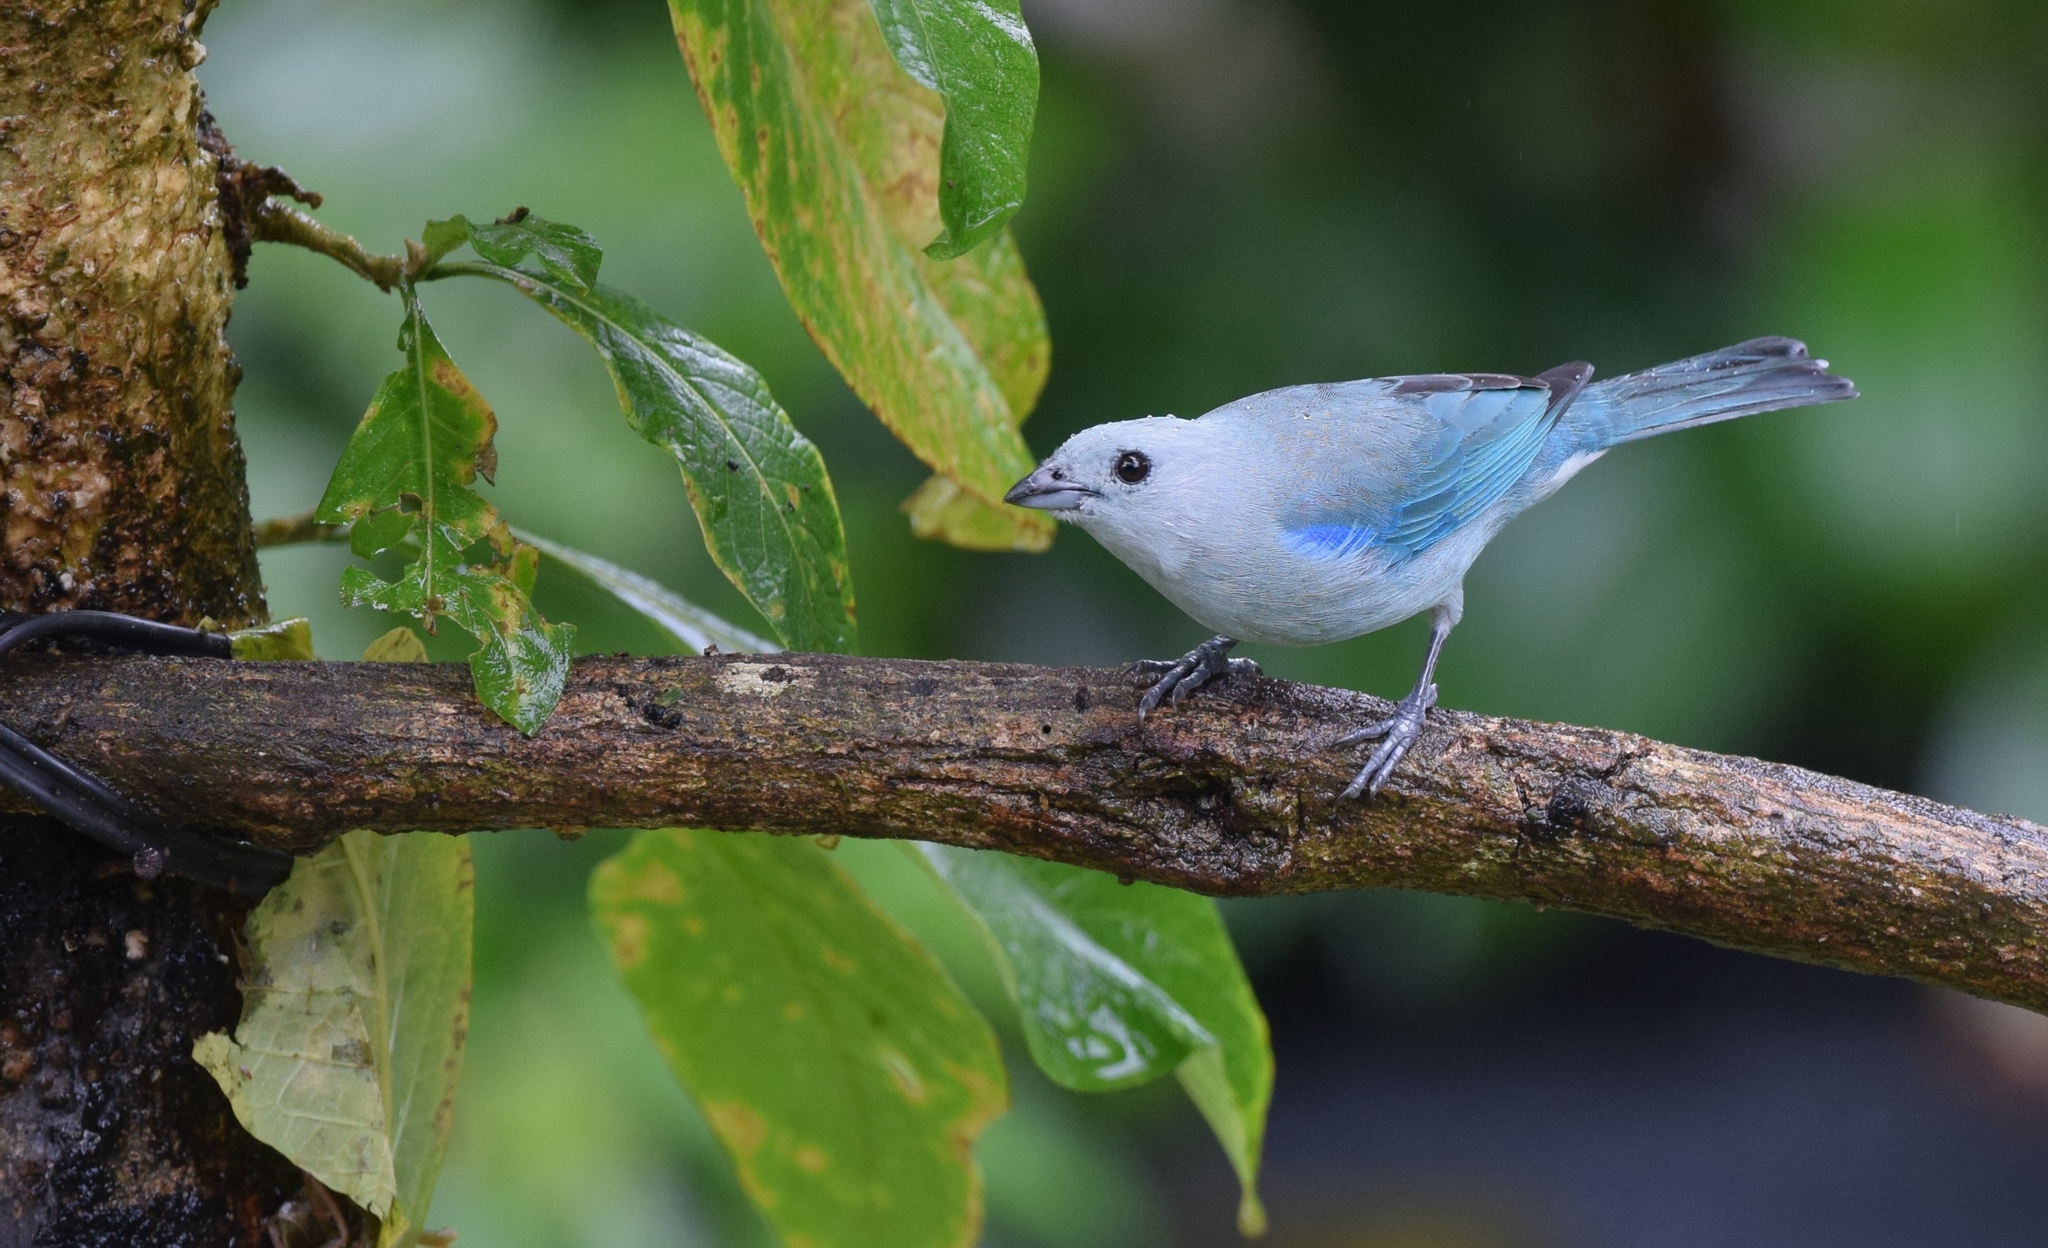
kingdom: Animalia
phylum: Chordata
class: Aves
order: Passeriformes
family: Thraupidae
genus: Thraupis
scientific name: Thraupis episcopus
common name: Blue-grey tanager
